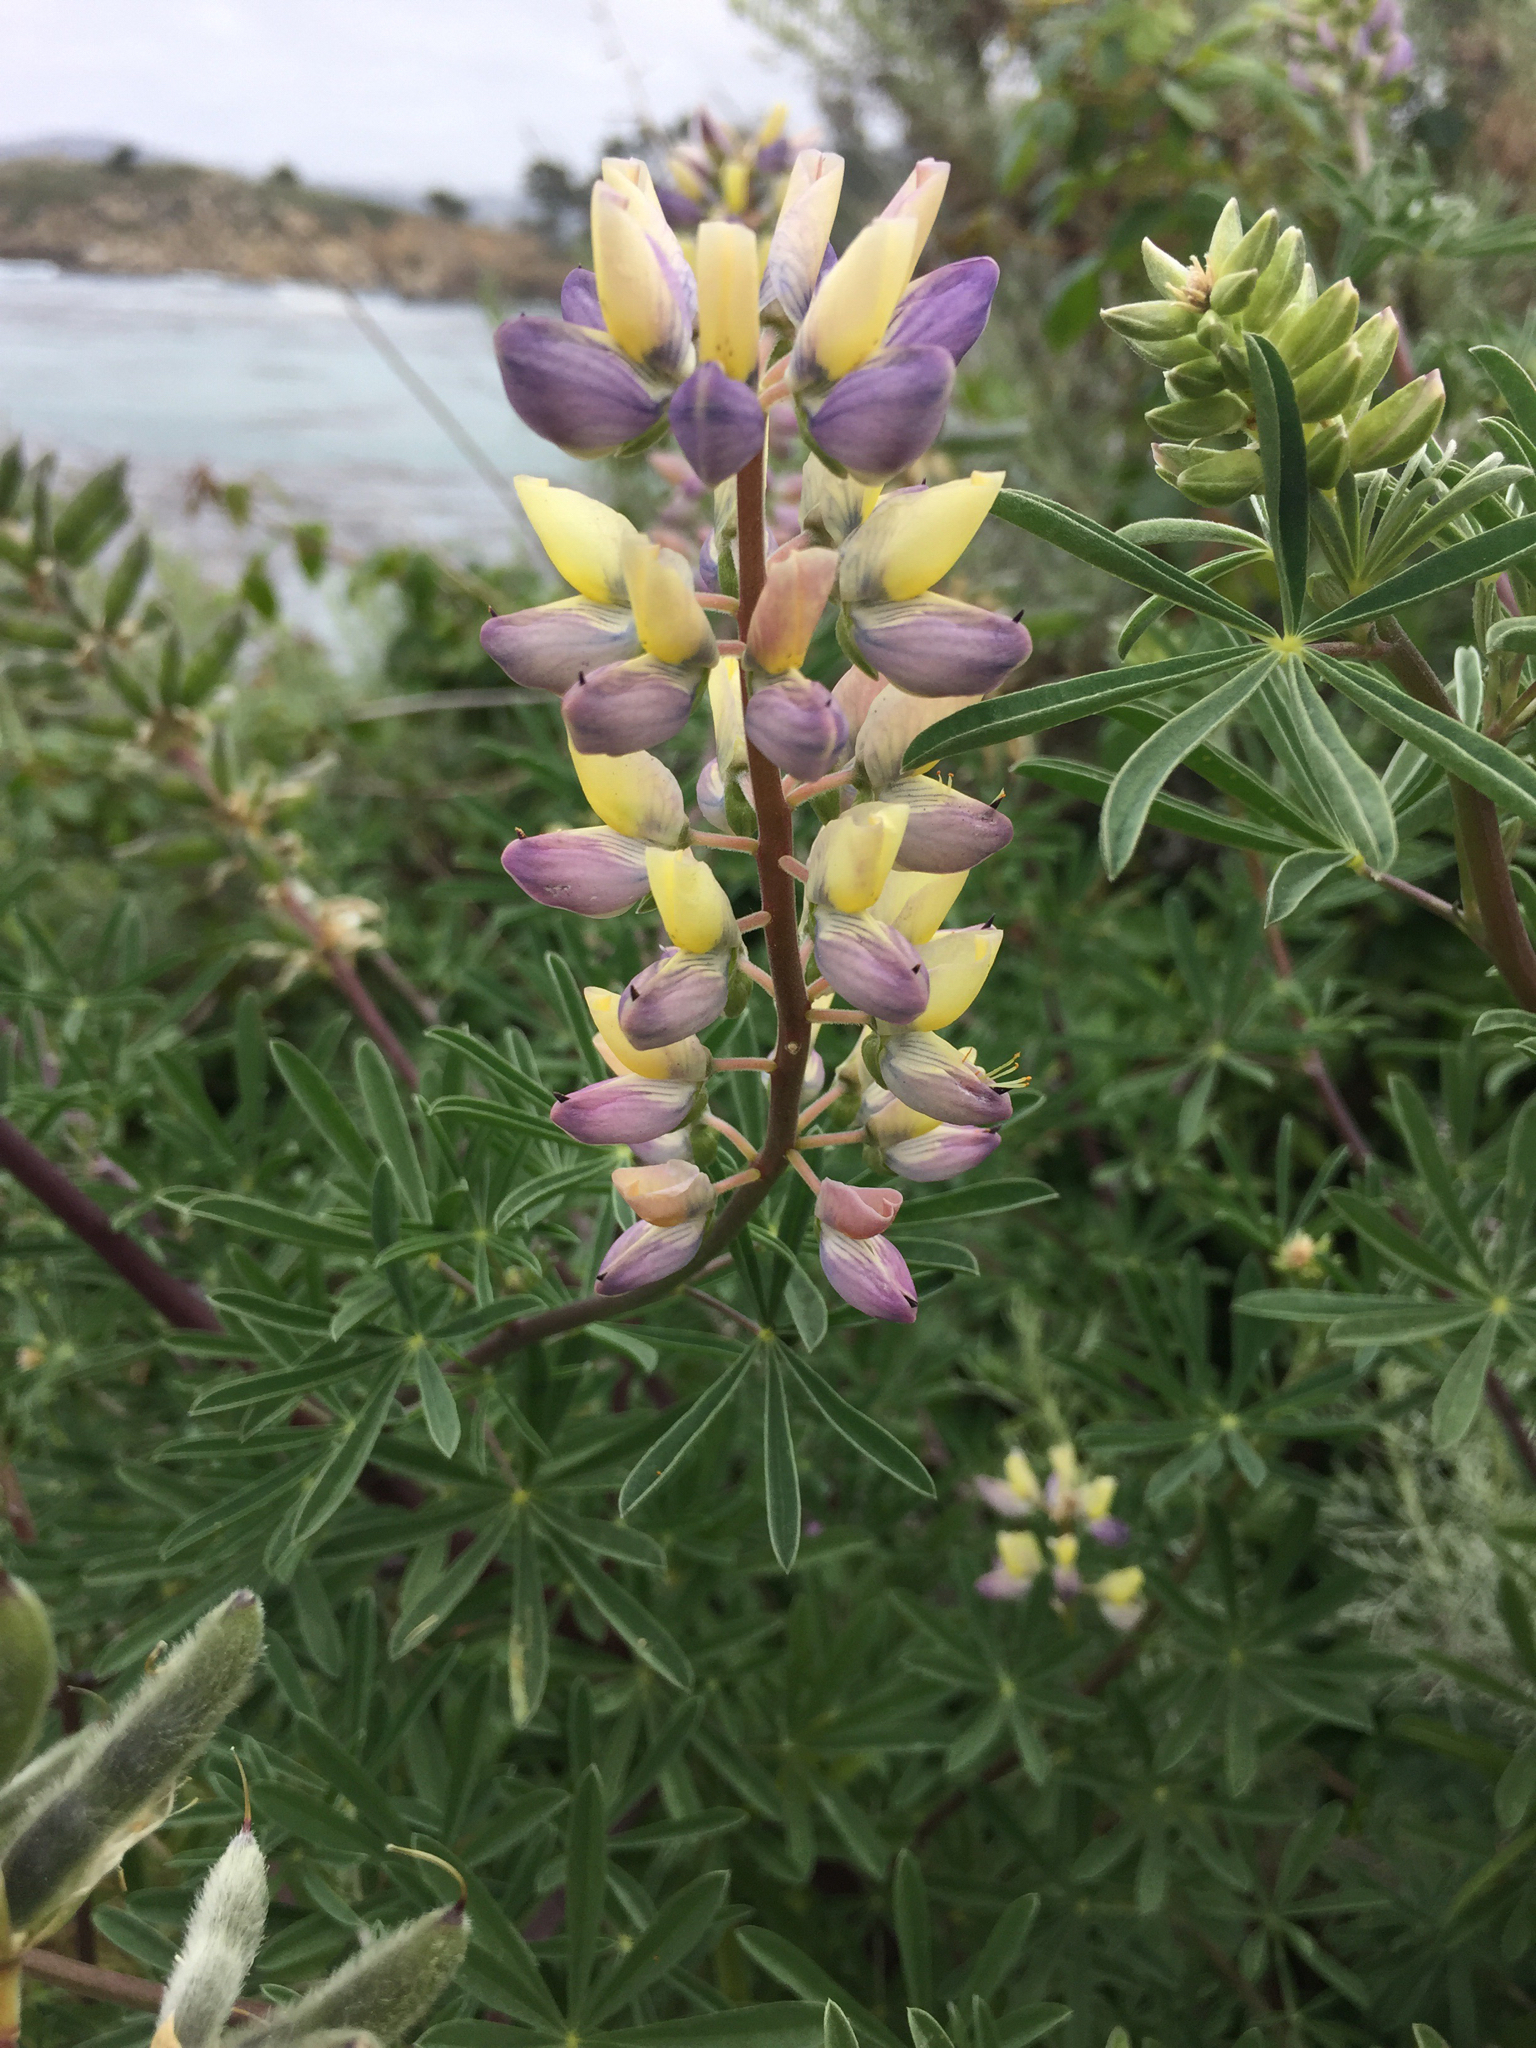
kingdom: Plantae
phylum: Tracheophyta
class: Magnoliopsida
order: Fabales
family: Fabaceae
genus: Lupinus
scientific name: Lupinus arboreus
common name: Yellow bush lupine
